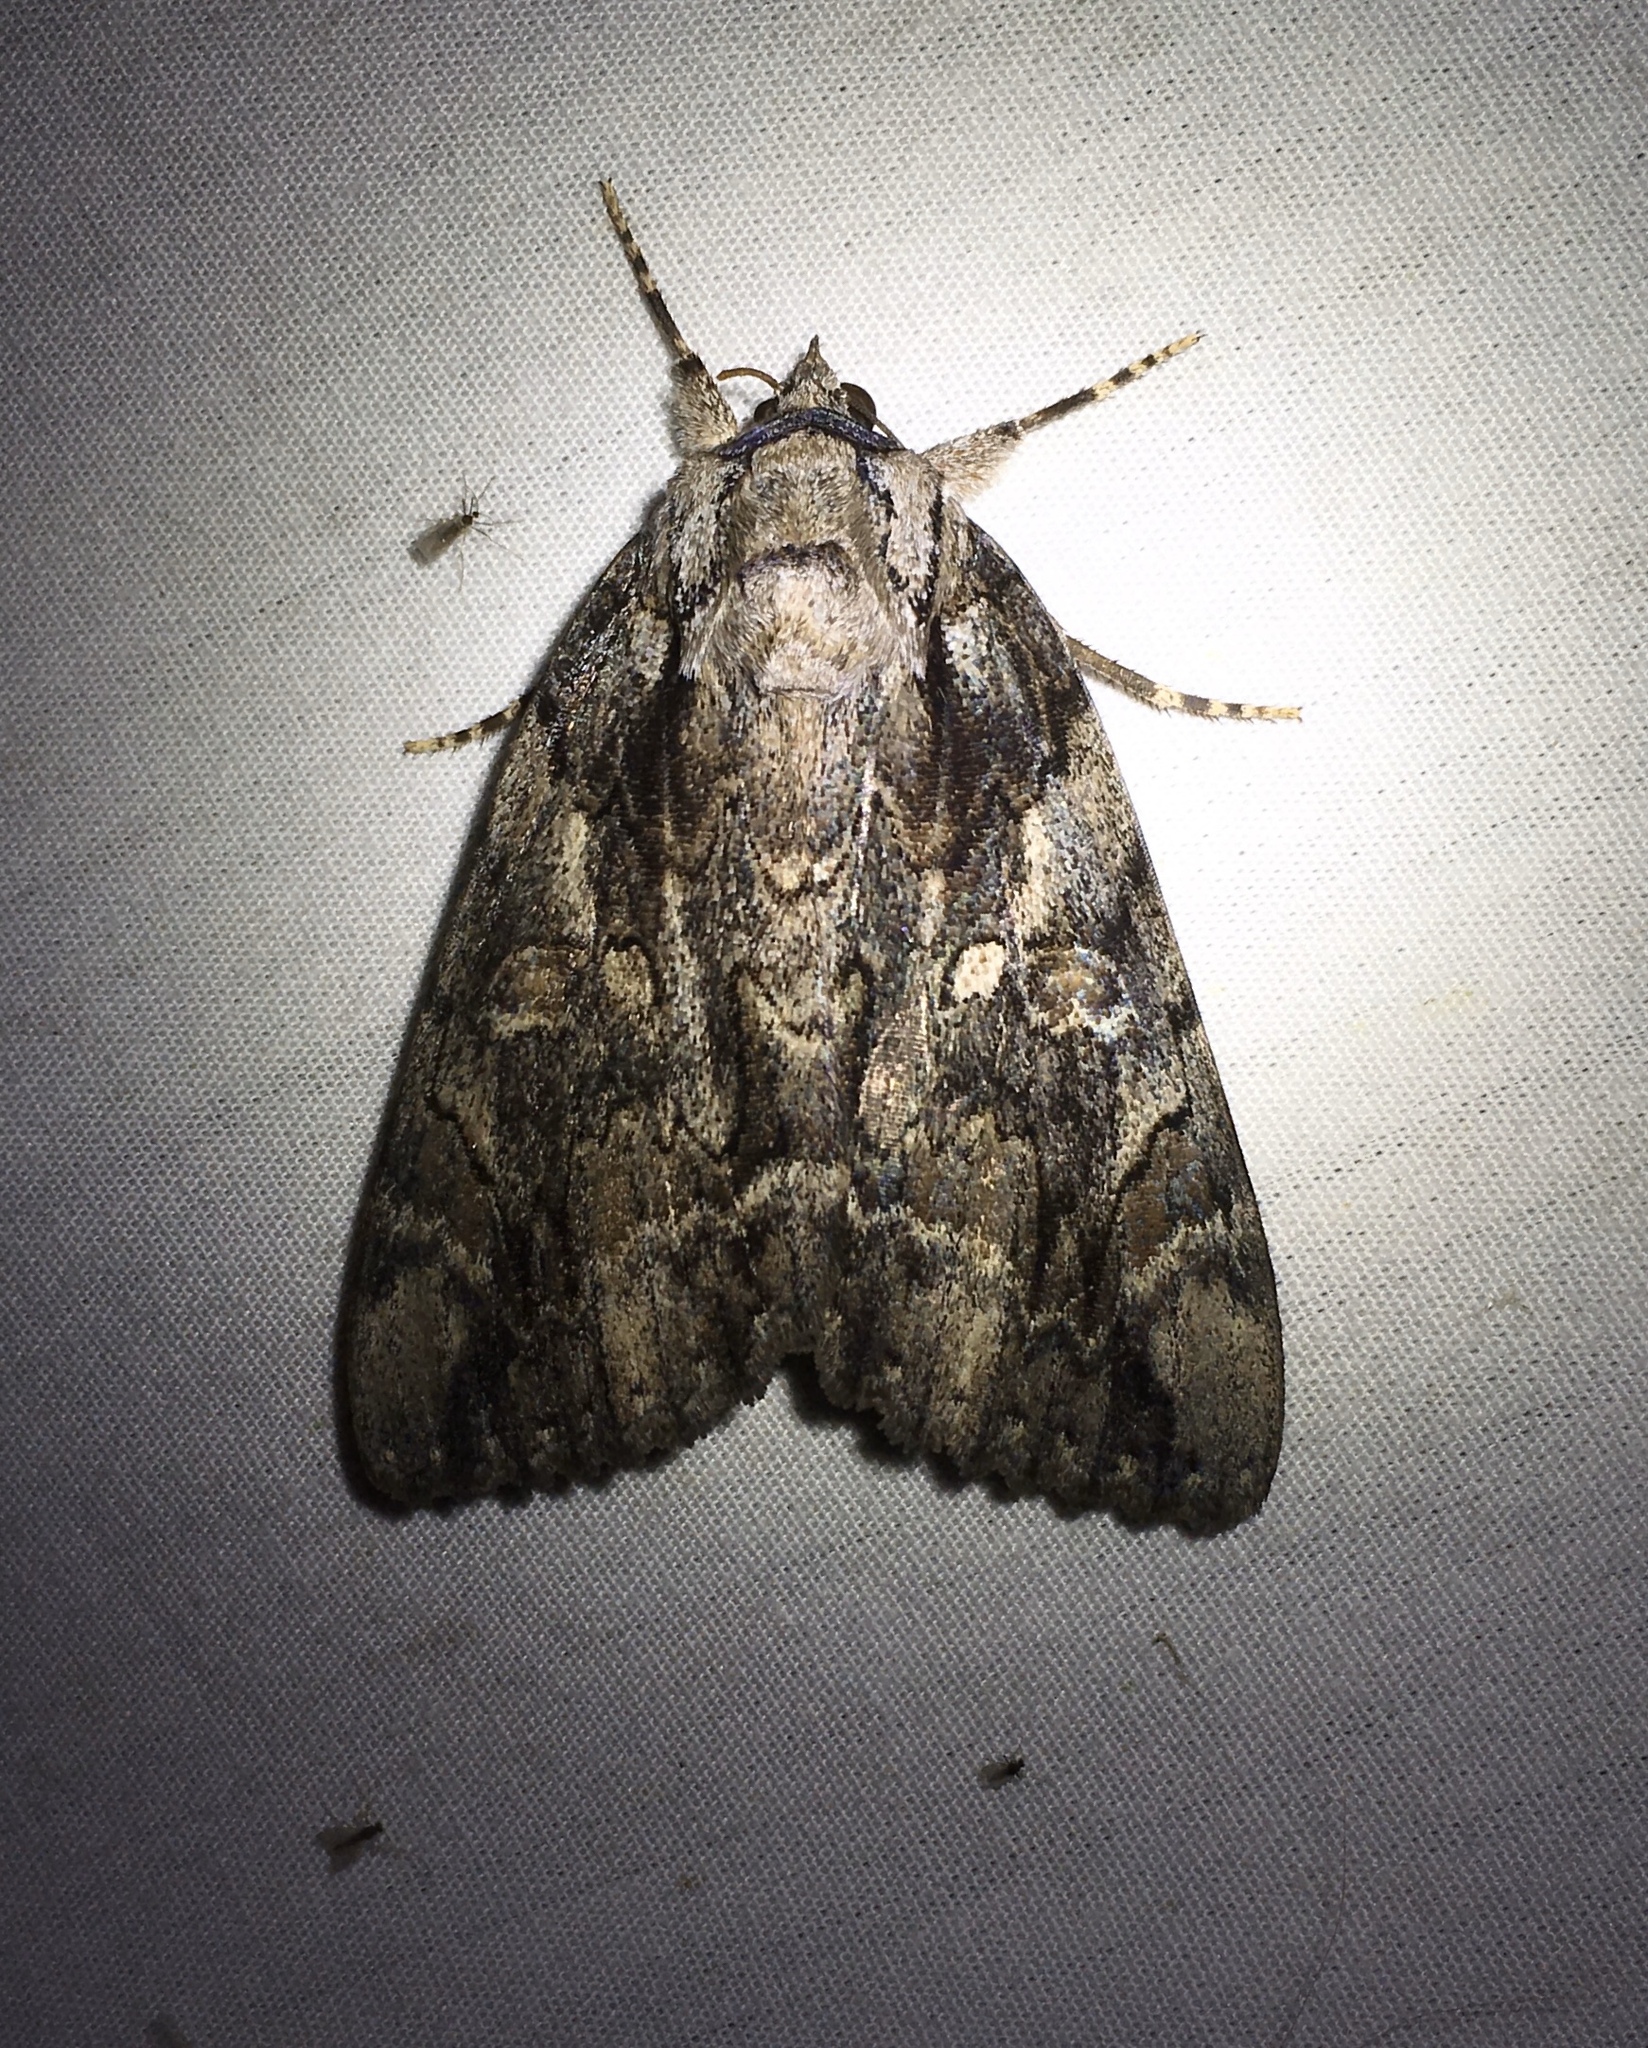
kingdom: Animalia
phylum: Arthropoda
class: Insecta
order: Lepidoptera
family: Erebidae
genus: Catocala
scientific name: Catocala neogama
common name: Bride underwing
